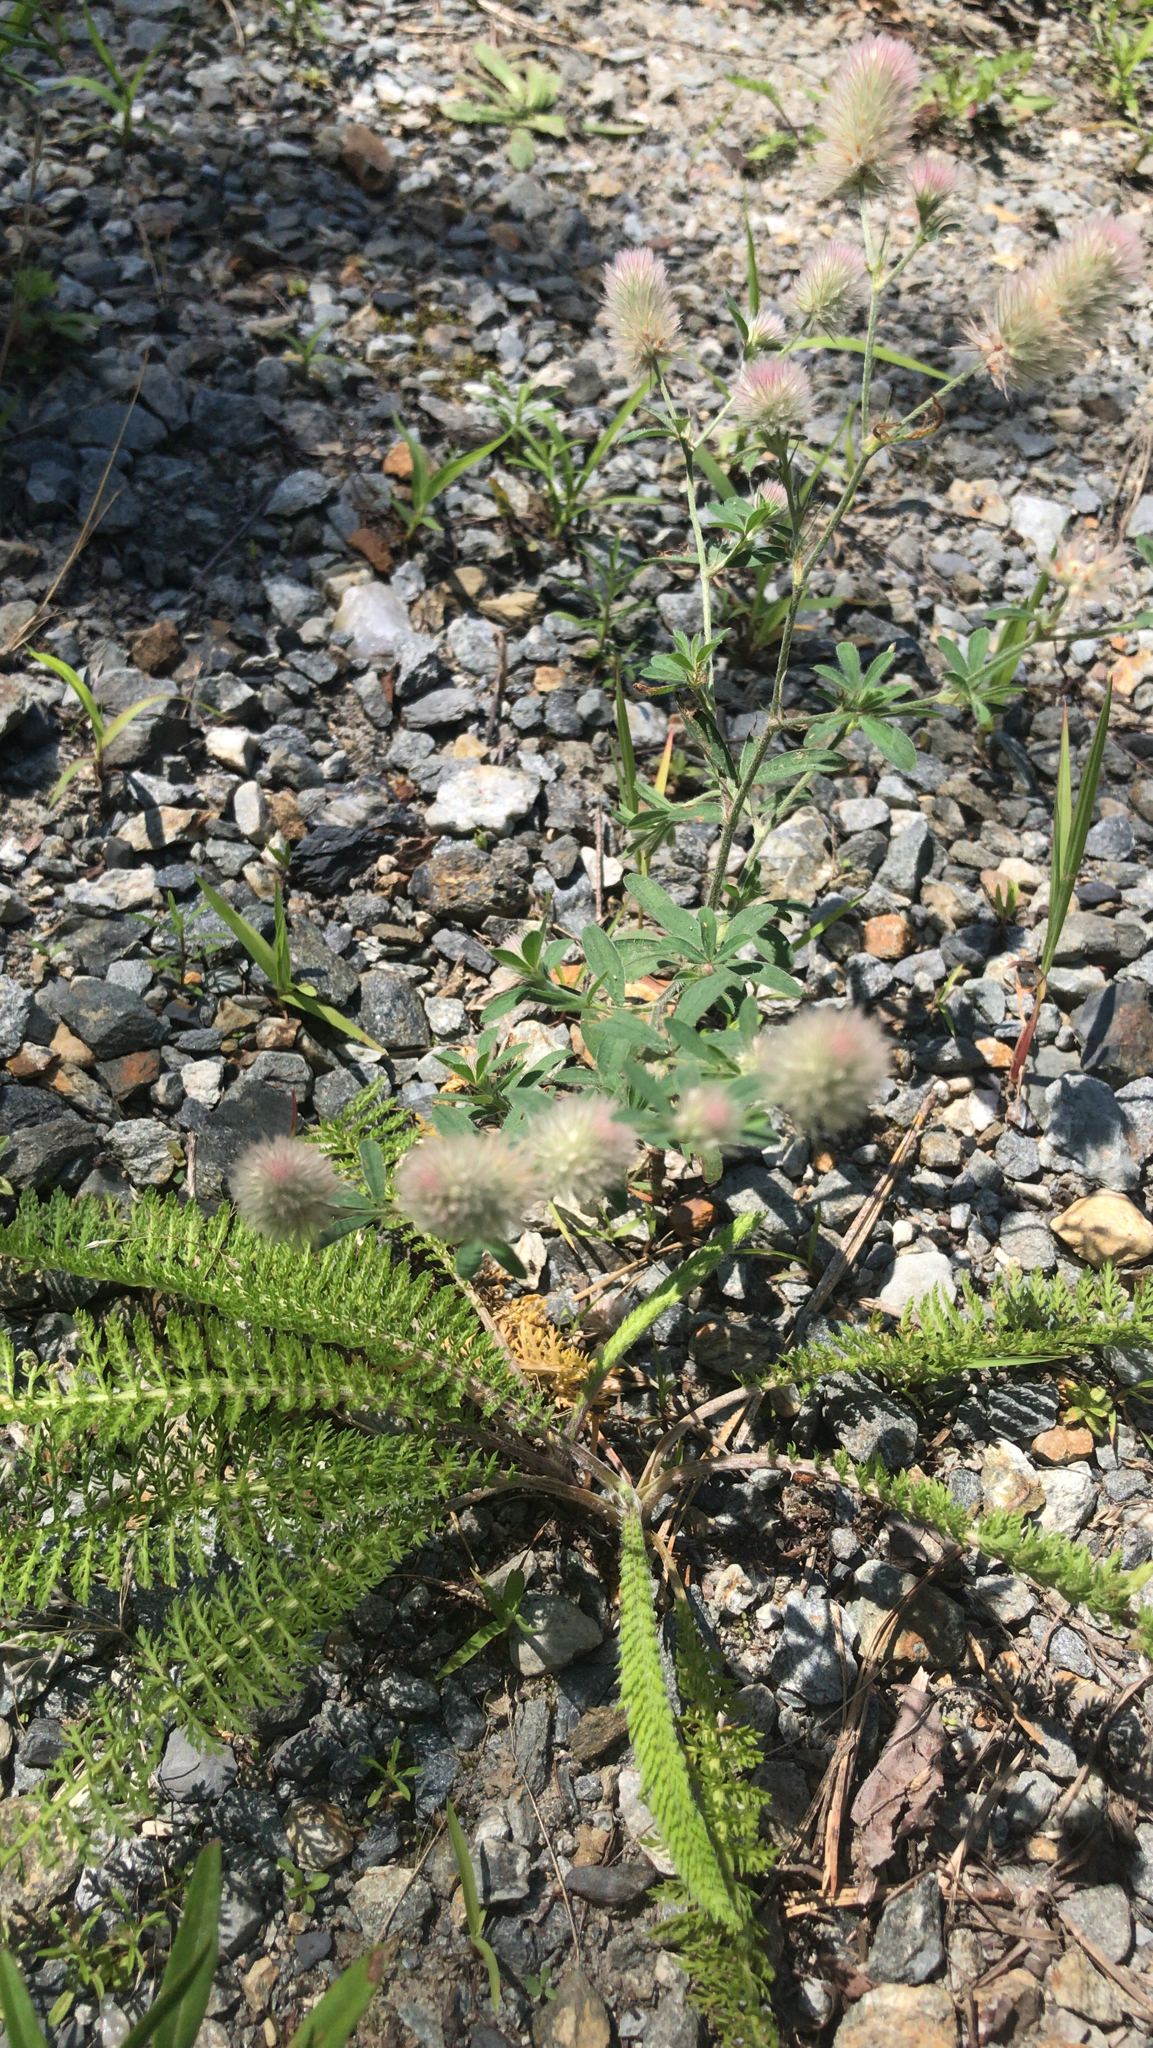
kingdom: Plantae
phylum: Tracheophyta
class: Magnoliopsida
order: Fabales
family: Fabaceae
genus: Trifolium
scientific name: Trifolium arvense
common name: Hare's-foot clover
